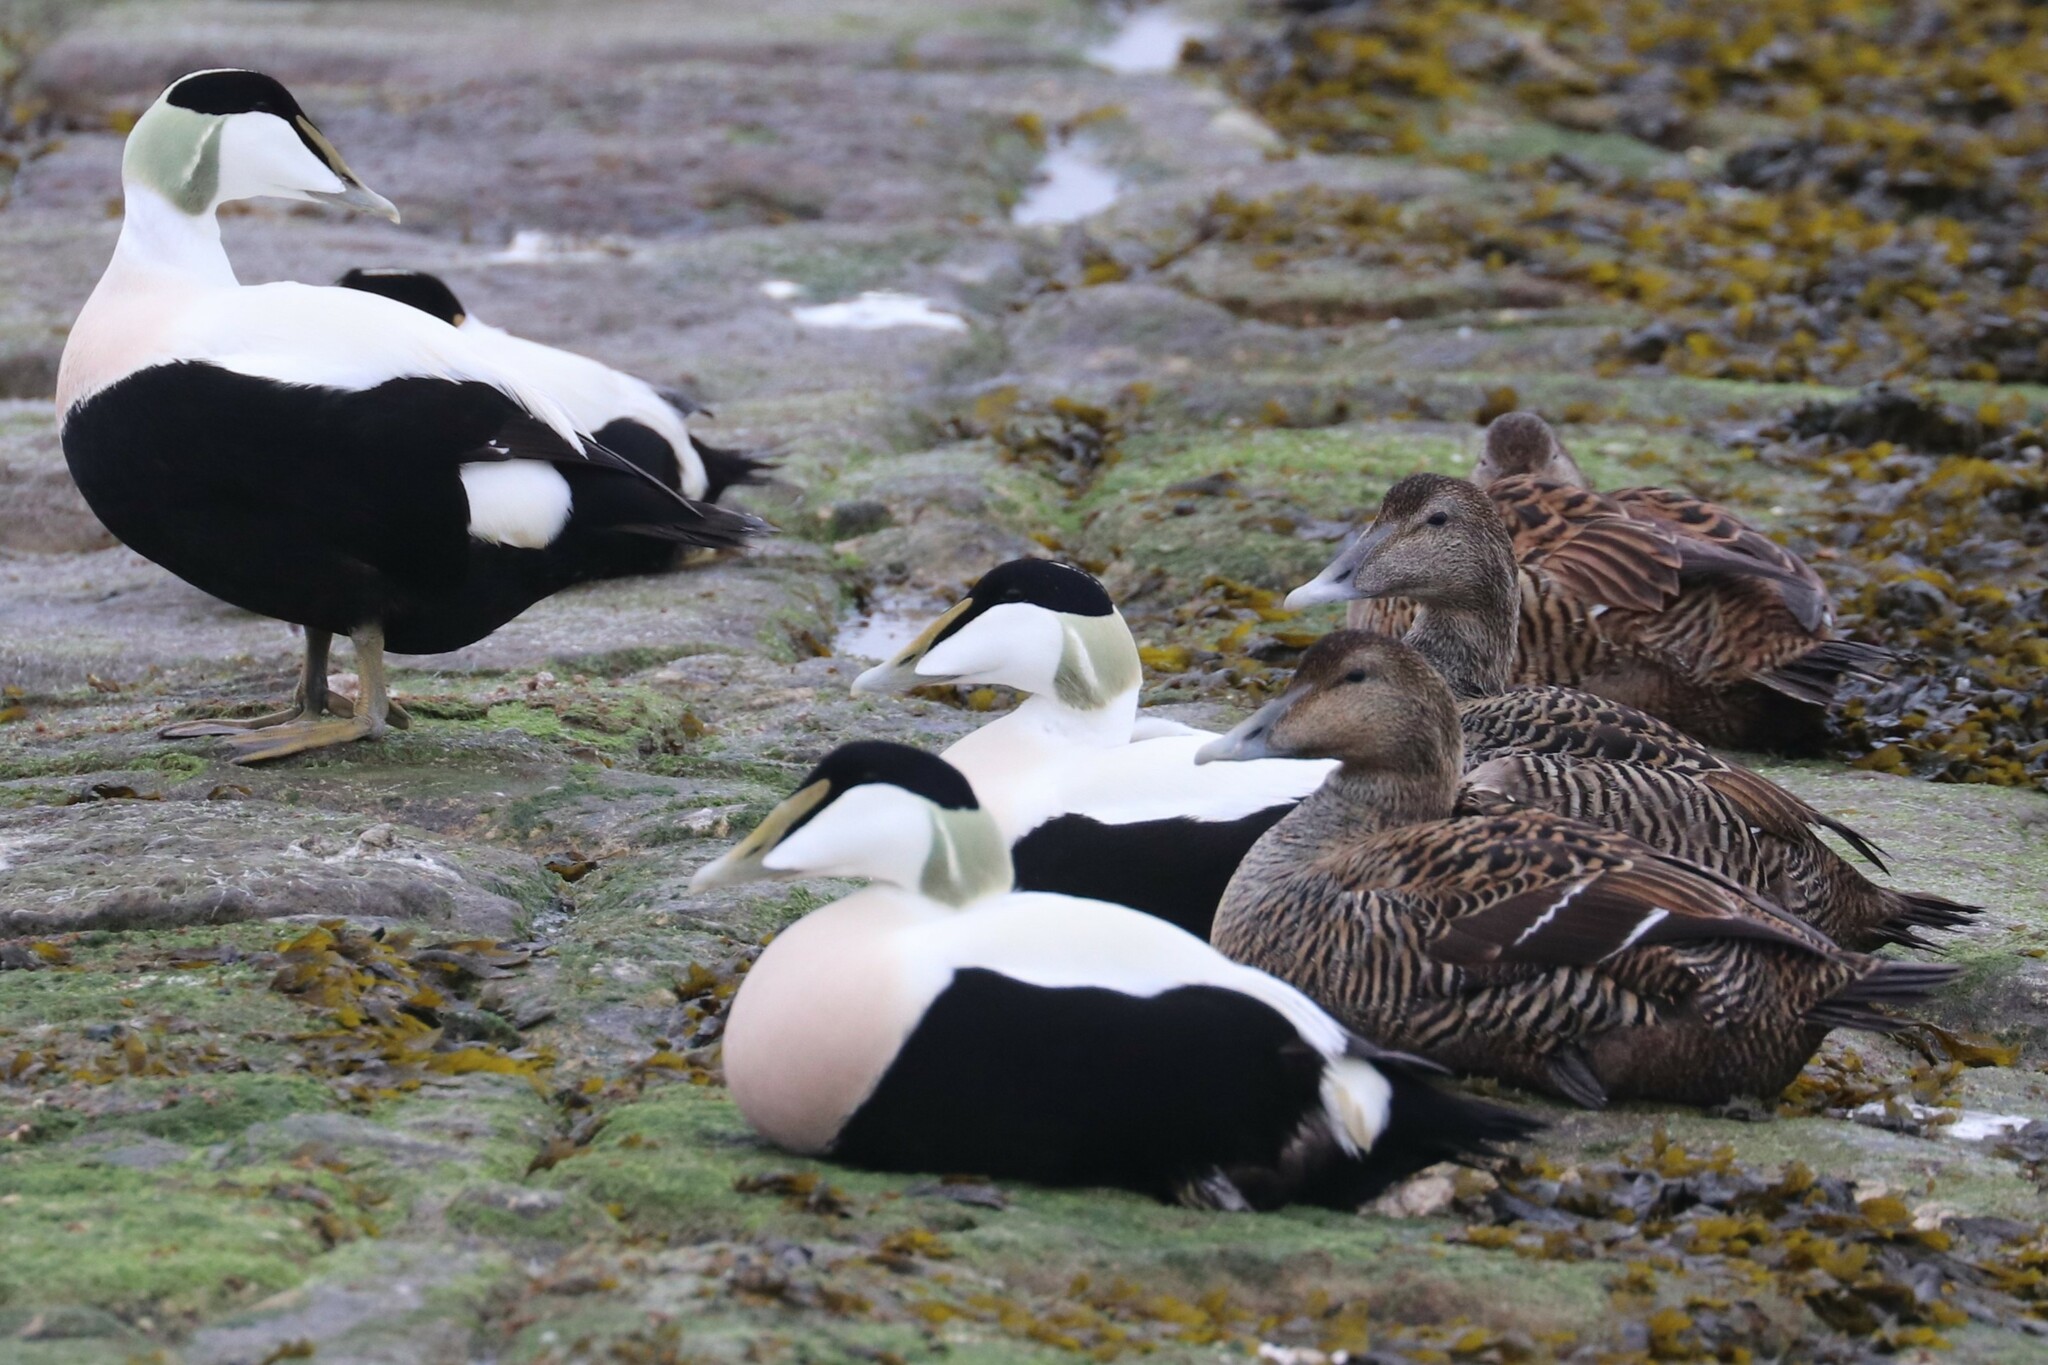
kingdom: Animalia
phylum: Chordata
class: Aves
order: Anseriformes
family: Anatidae
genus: Somateria
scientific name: Somateria mollissima
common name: Common eider
